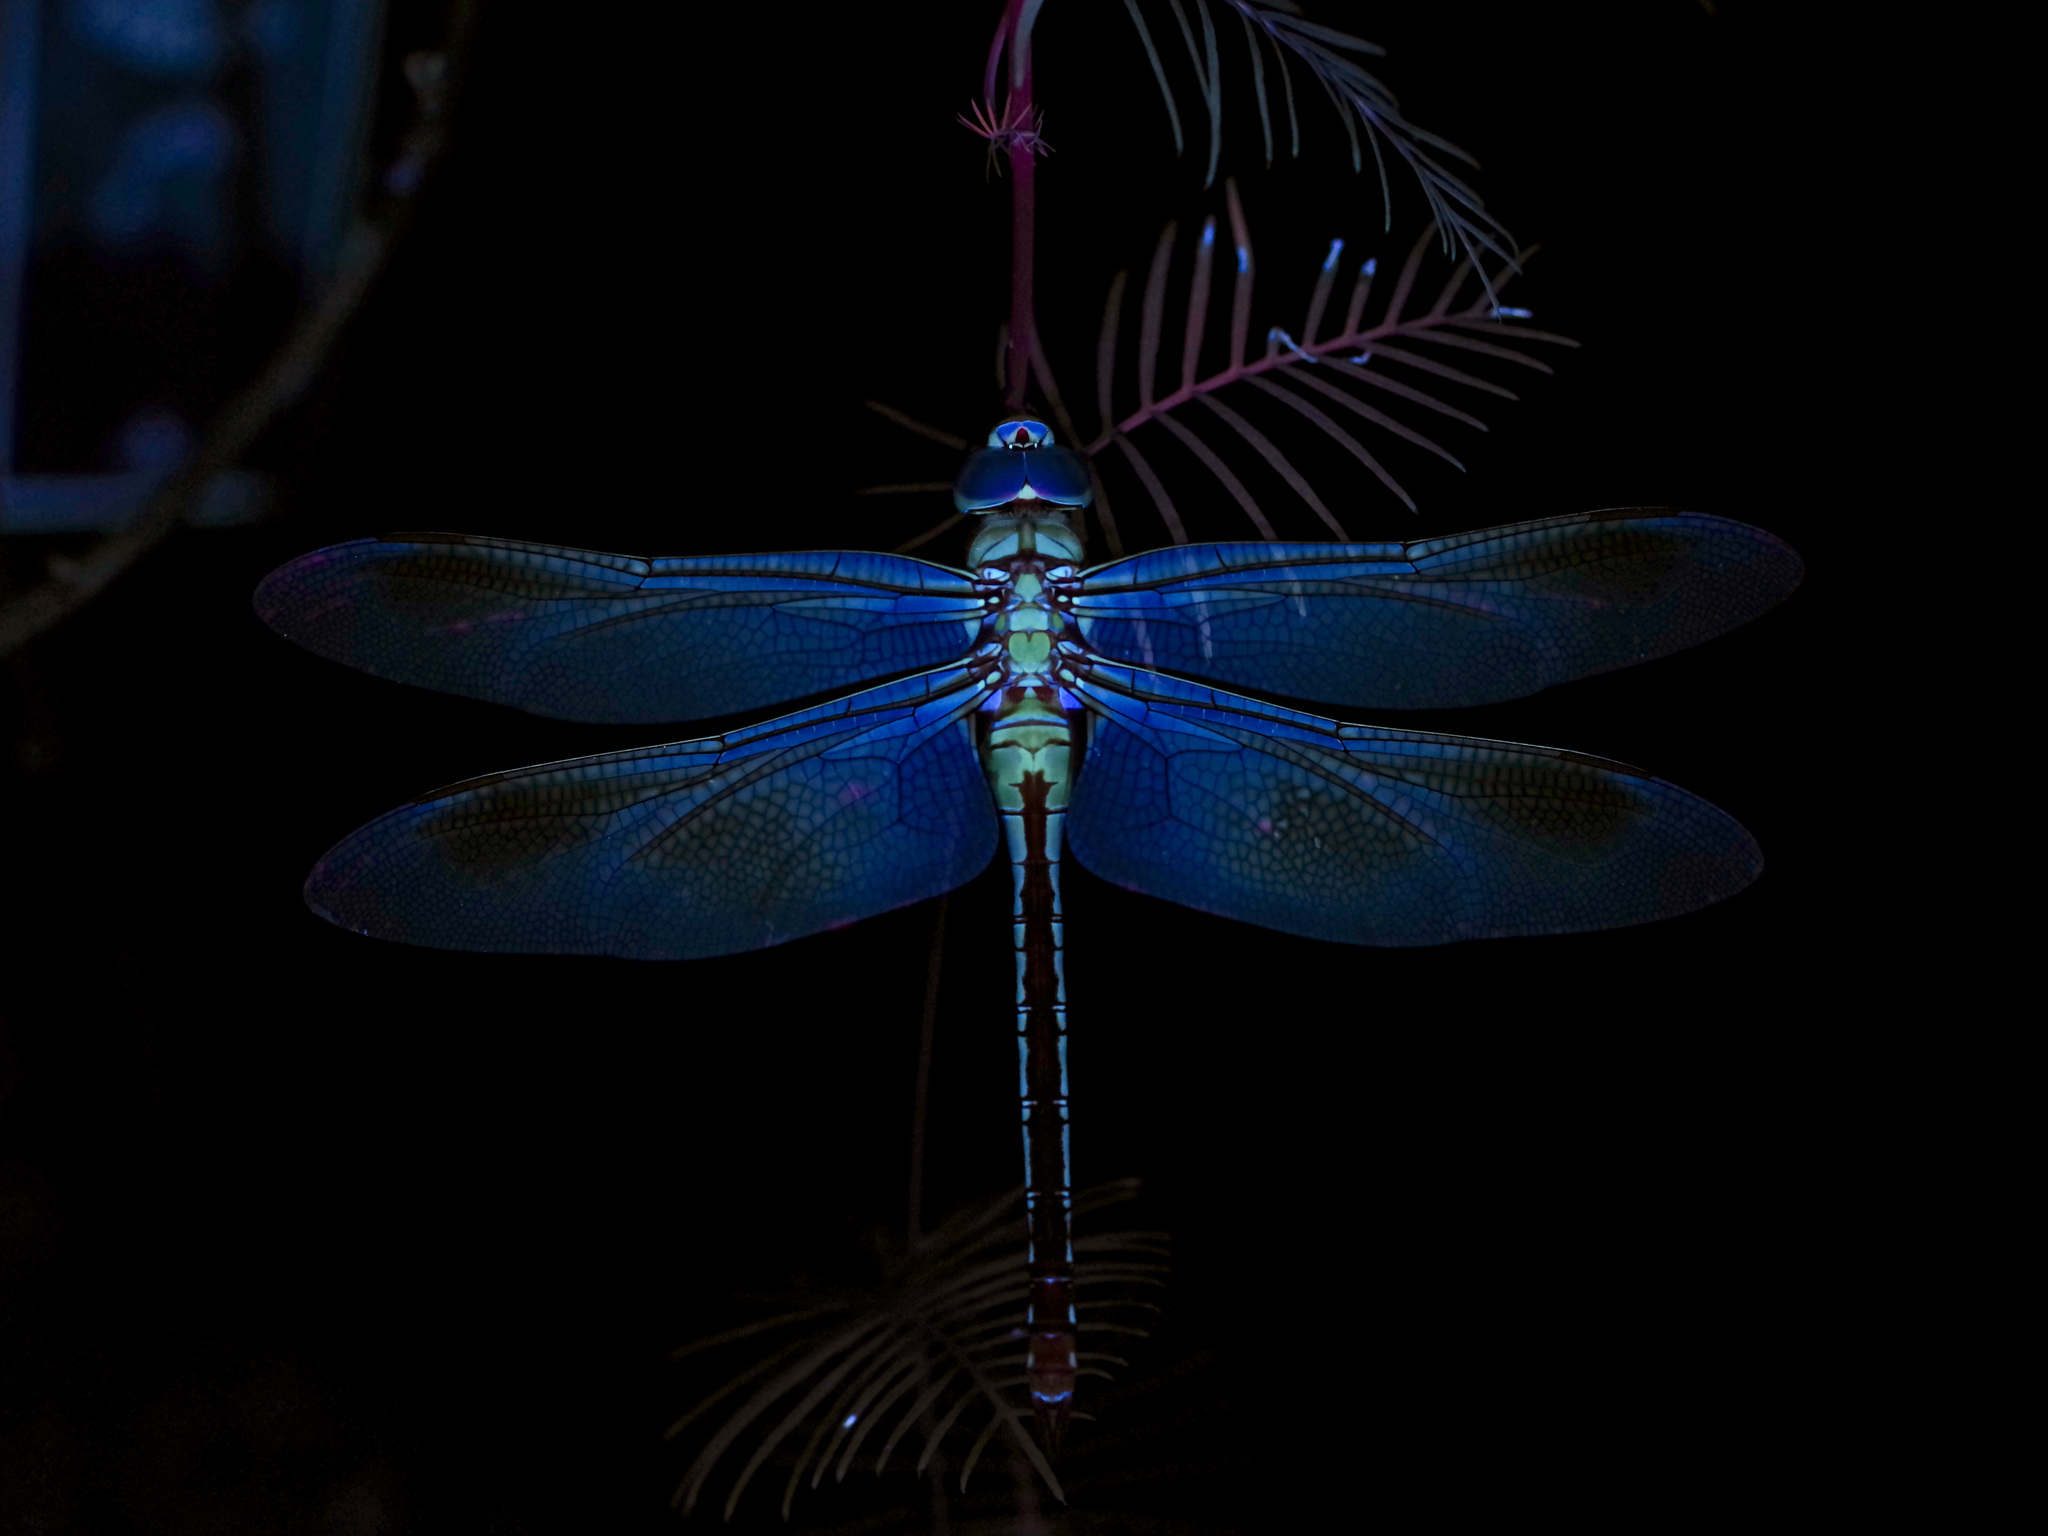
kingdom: Animalia
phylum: Arthropoda
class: Insecta
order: Odonata
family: Aeshnidae
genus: Anax
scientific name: Anax junius
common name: Common green darner
